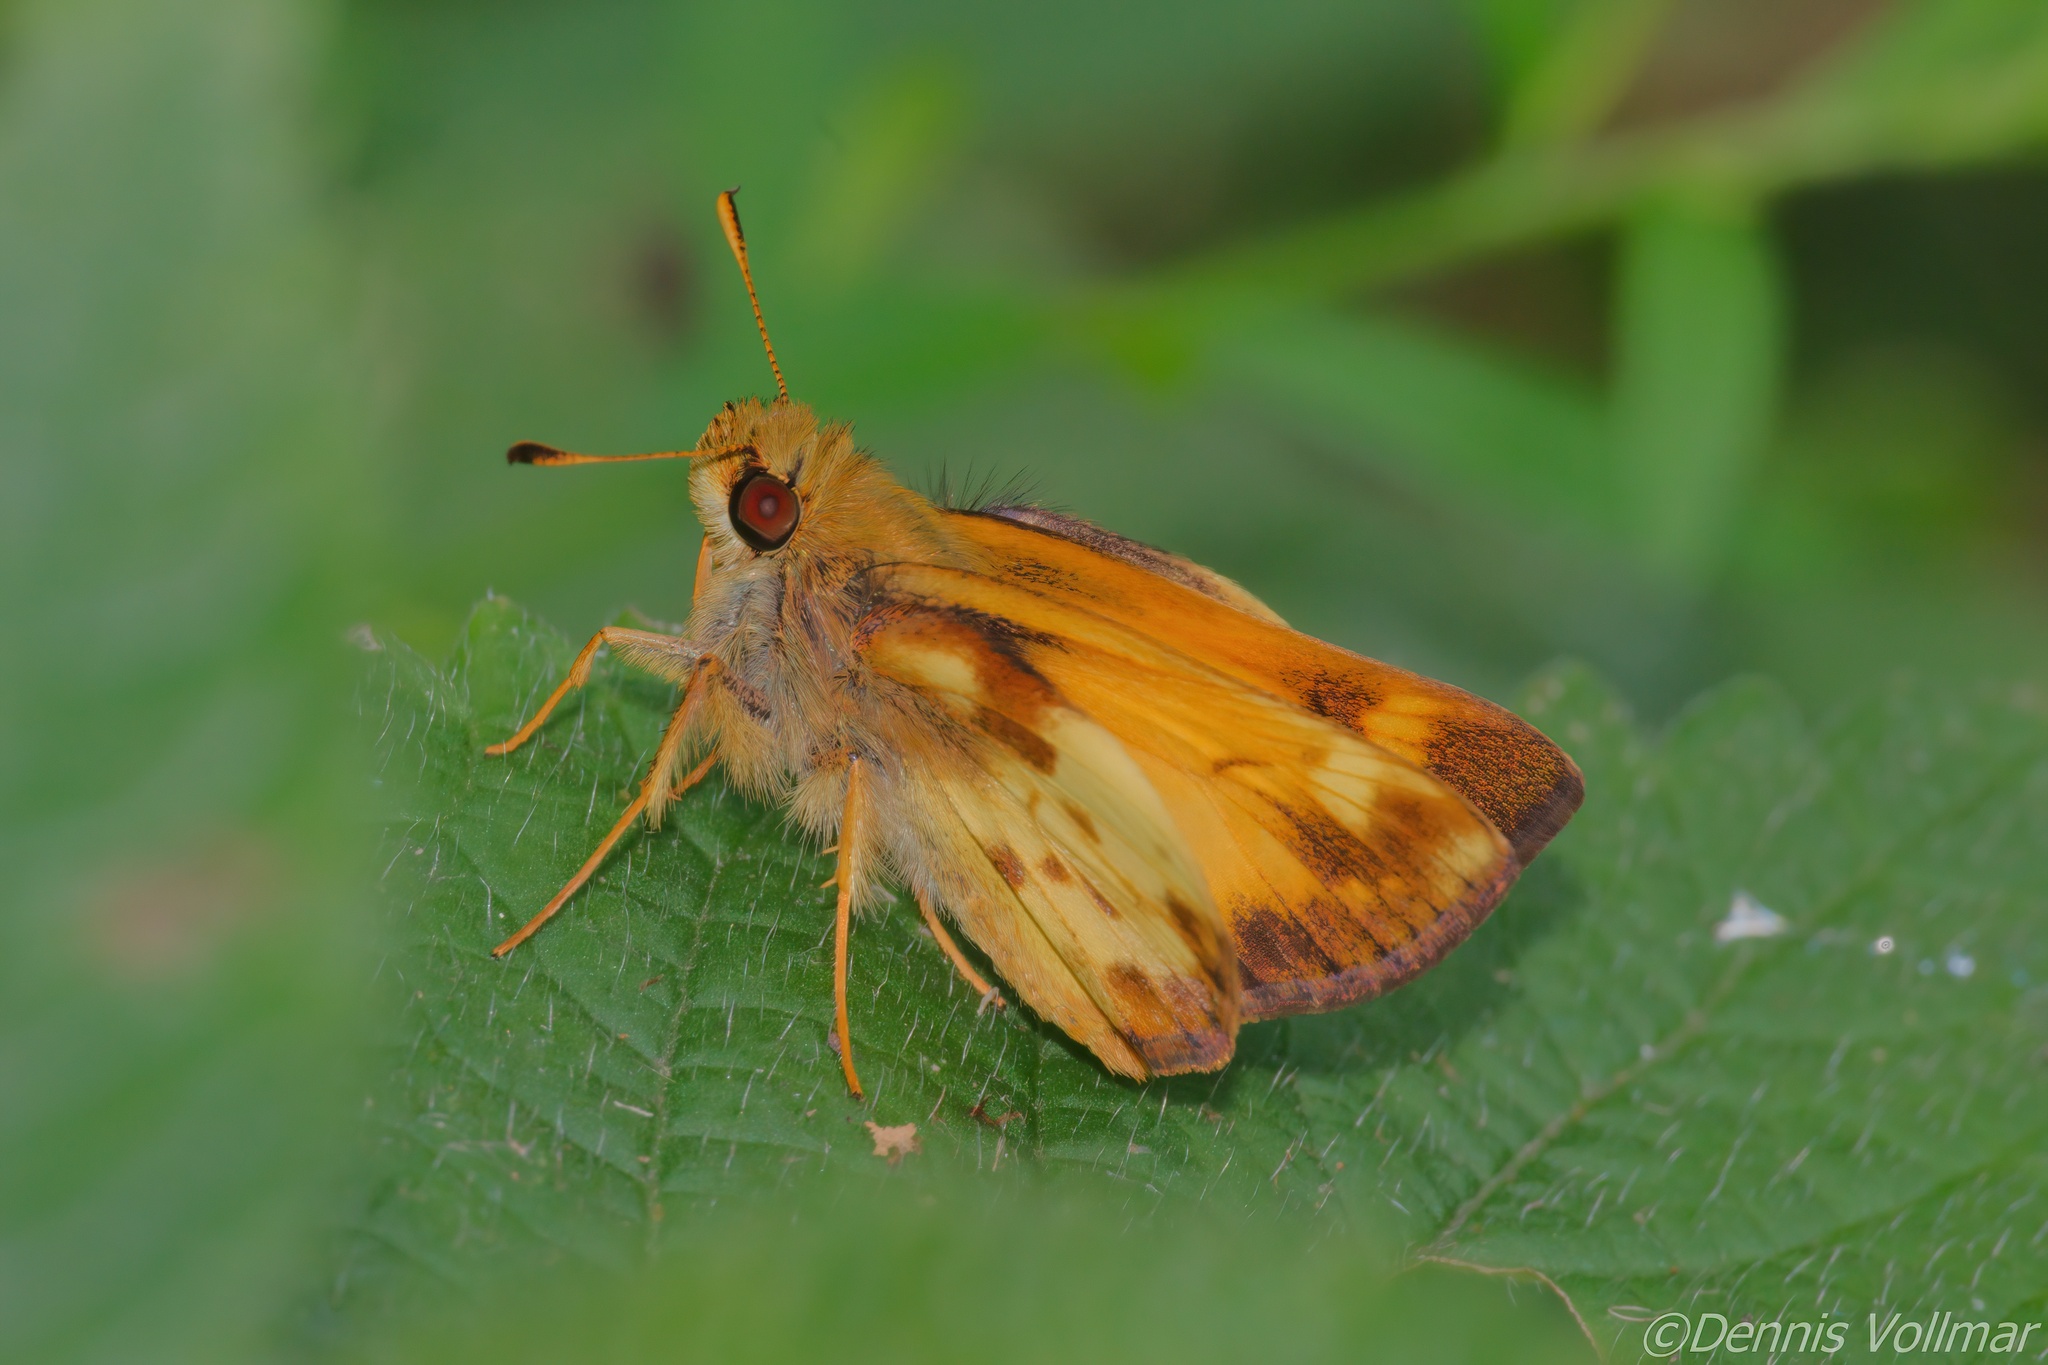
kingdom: Animalia
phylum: Arthropoda
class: Insecta
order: Lepidoptera
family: Hesperiidae
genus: Lon
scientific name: Lon zabulon
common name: Zabulon skipper
